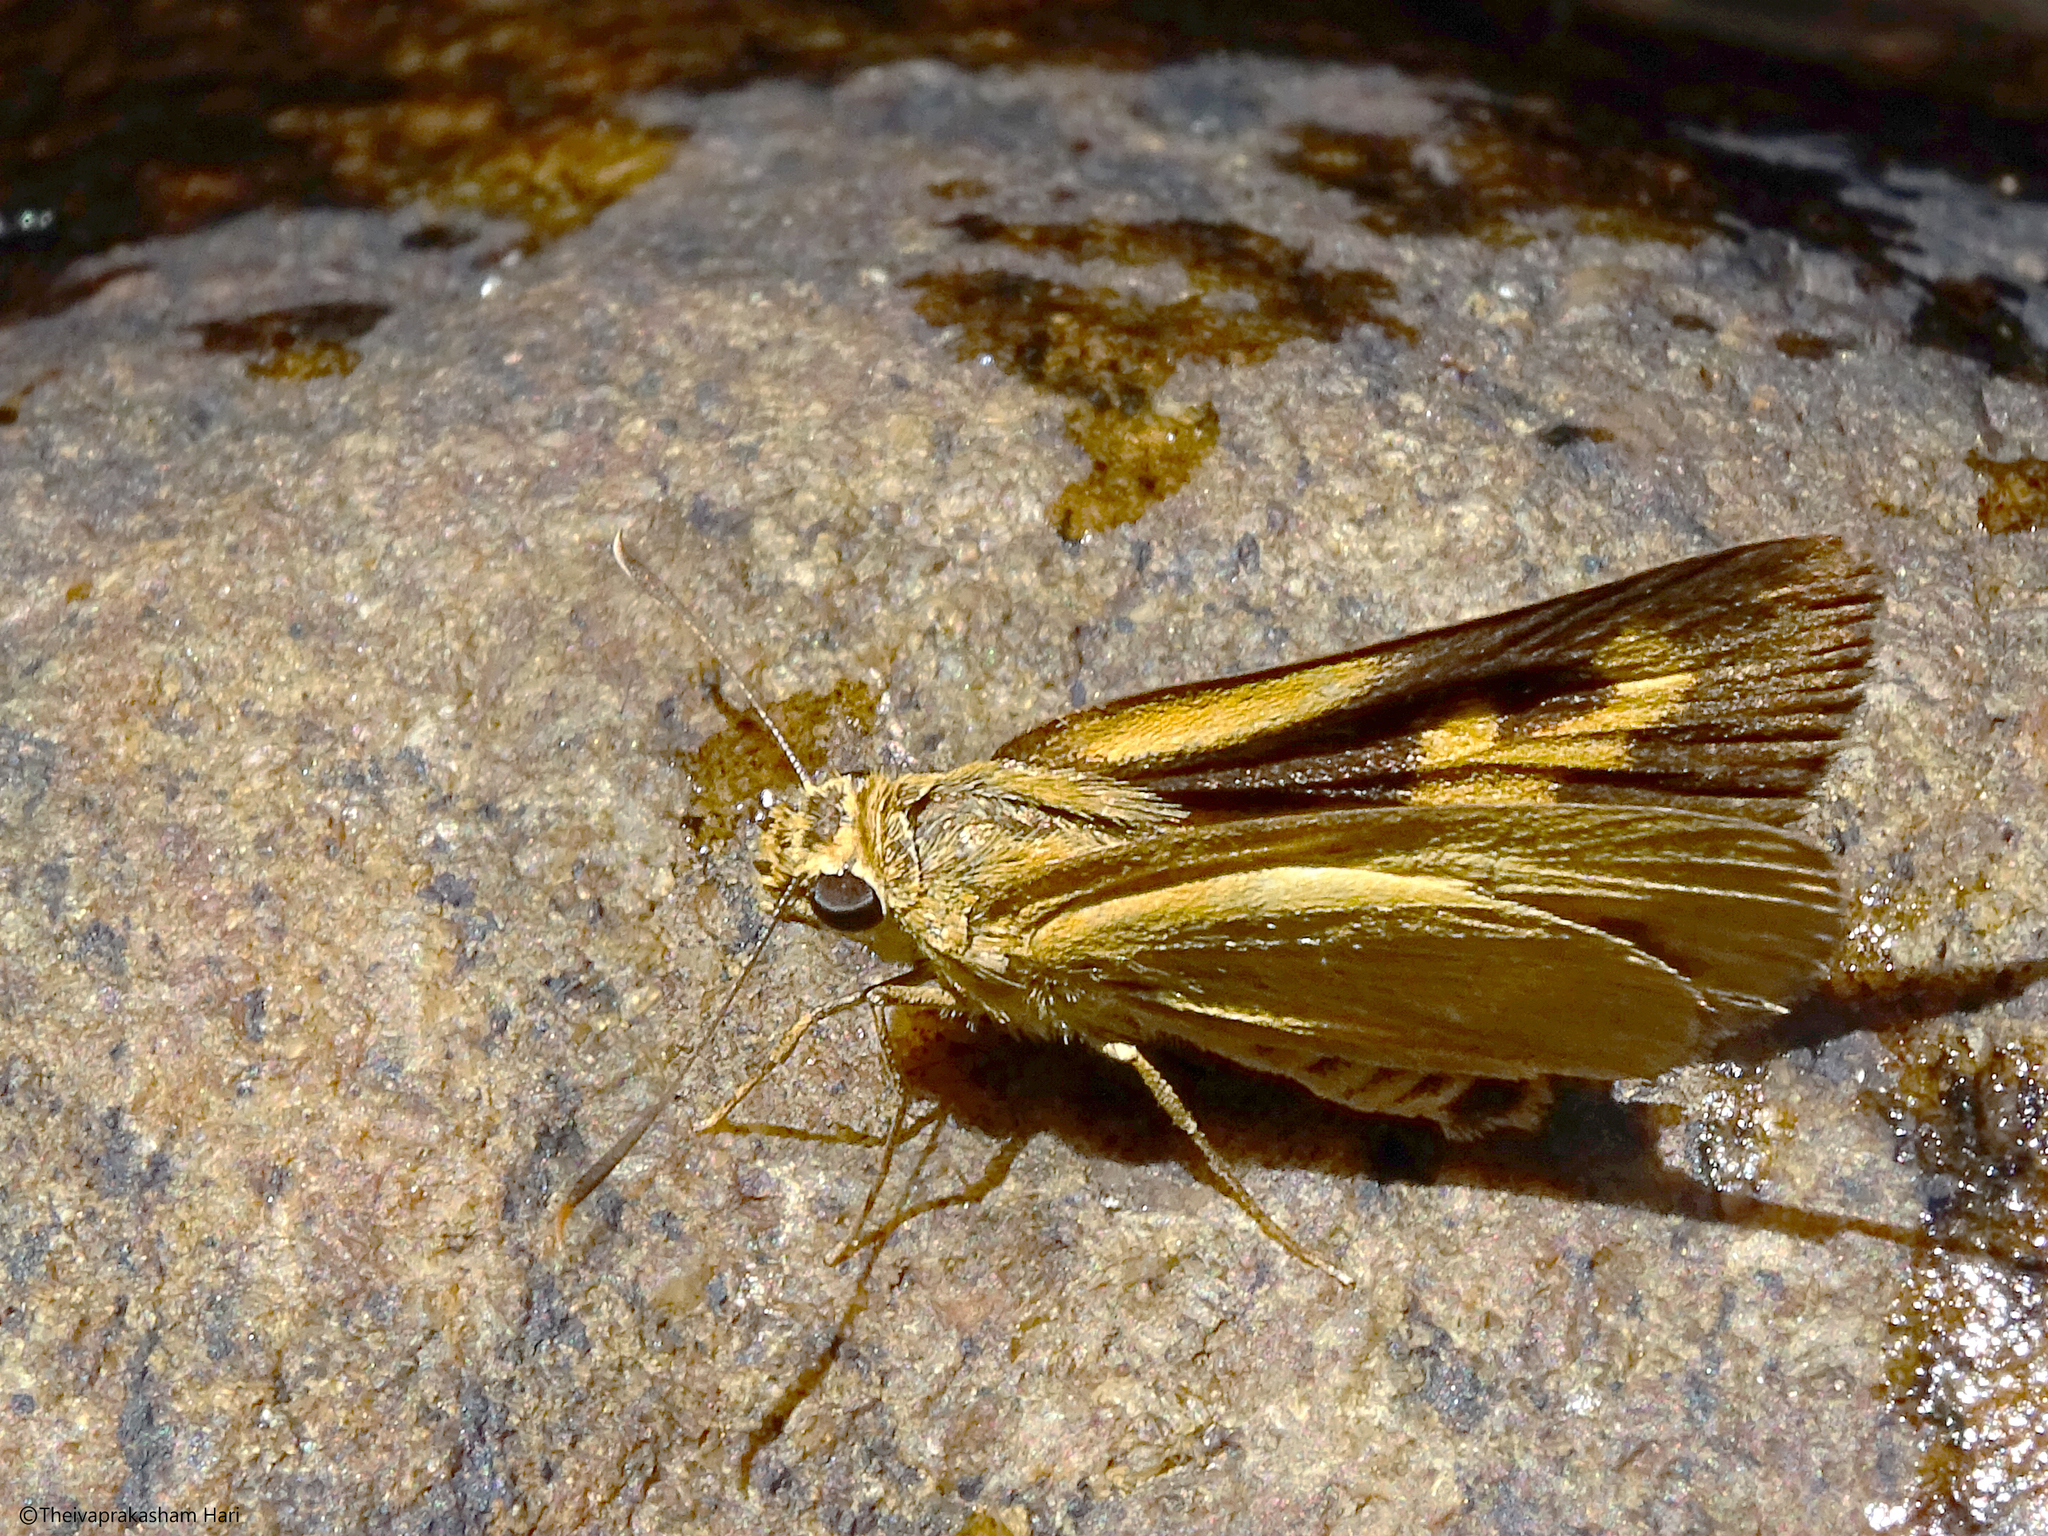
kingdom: Animalia
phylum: Arthropoda
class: Insecta
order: Lepidoptera
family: Hesperiidae
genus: Cupitha
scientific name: Cupitha purreea
